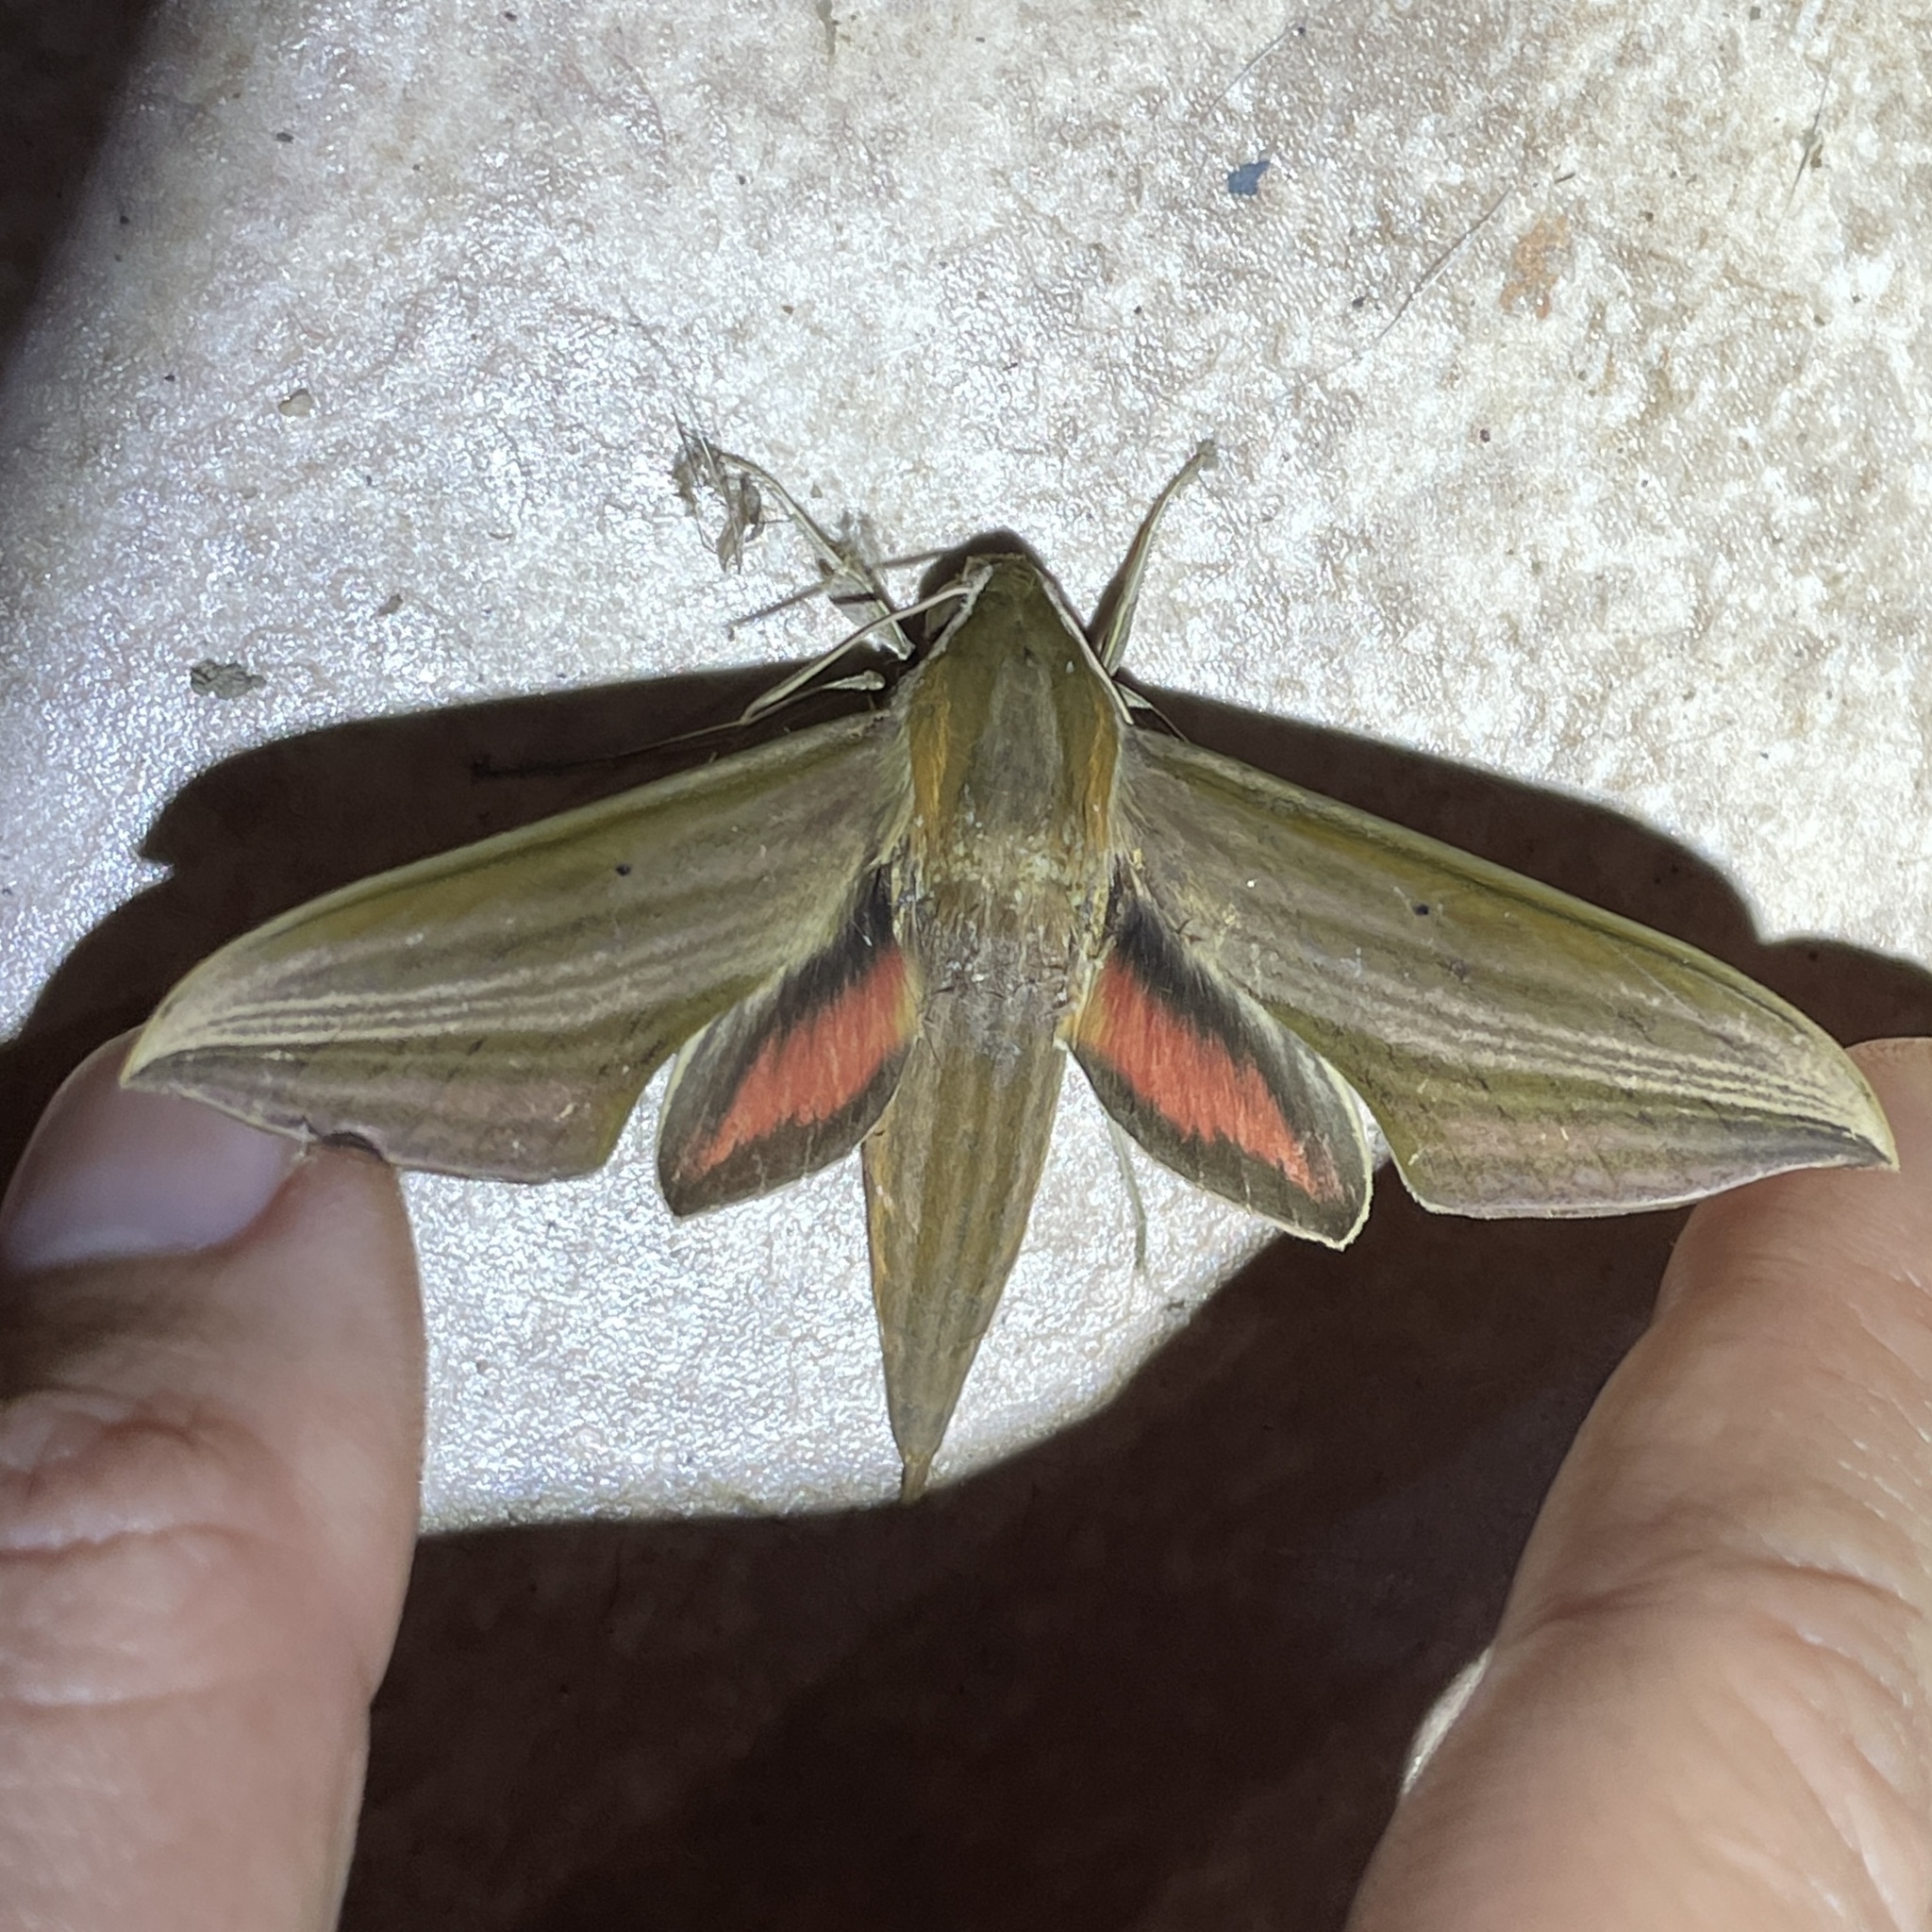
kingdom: Animalia
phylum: Arthropoda
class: Insecta
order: Lepidoptera
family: Sphingidae
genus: Xylophanes
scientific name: Xylophanes neoptolemus
